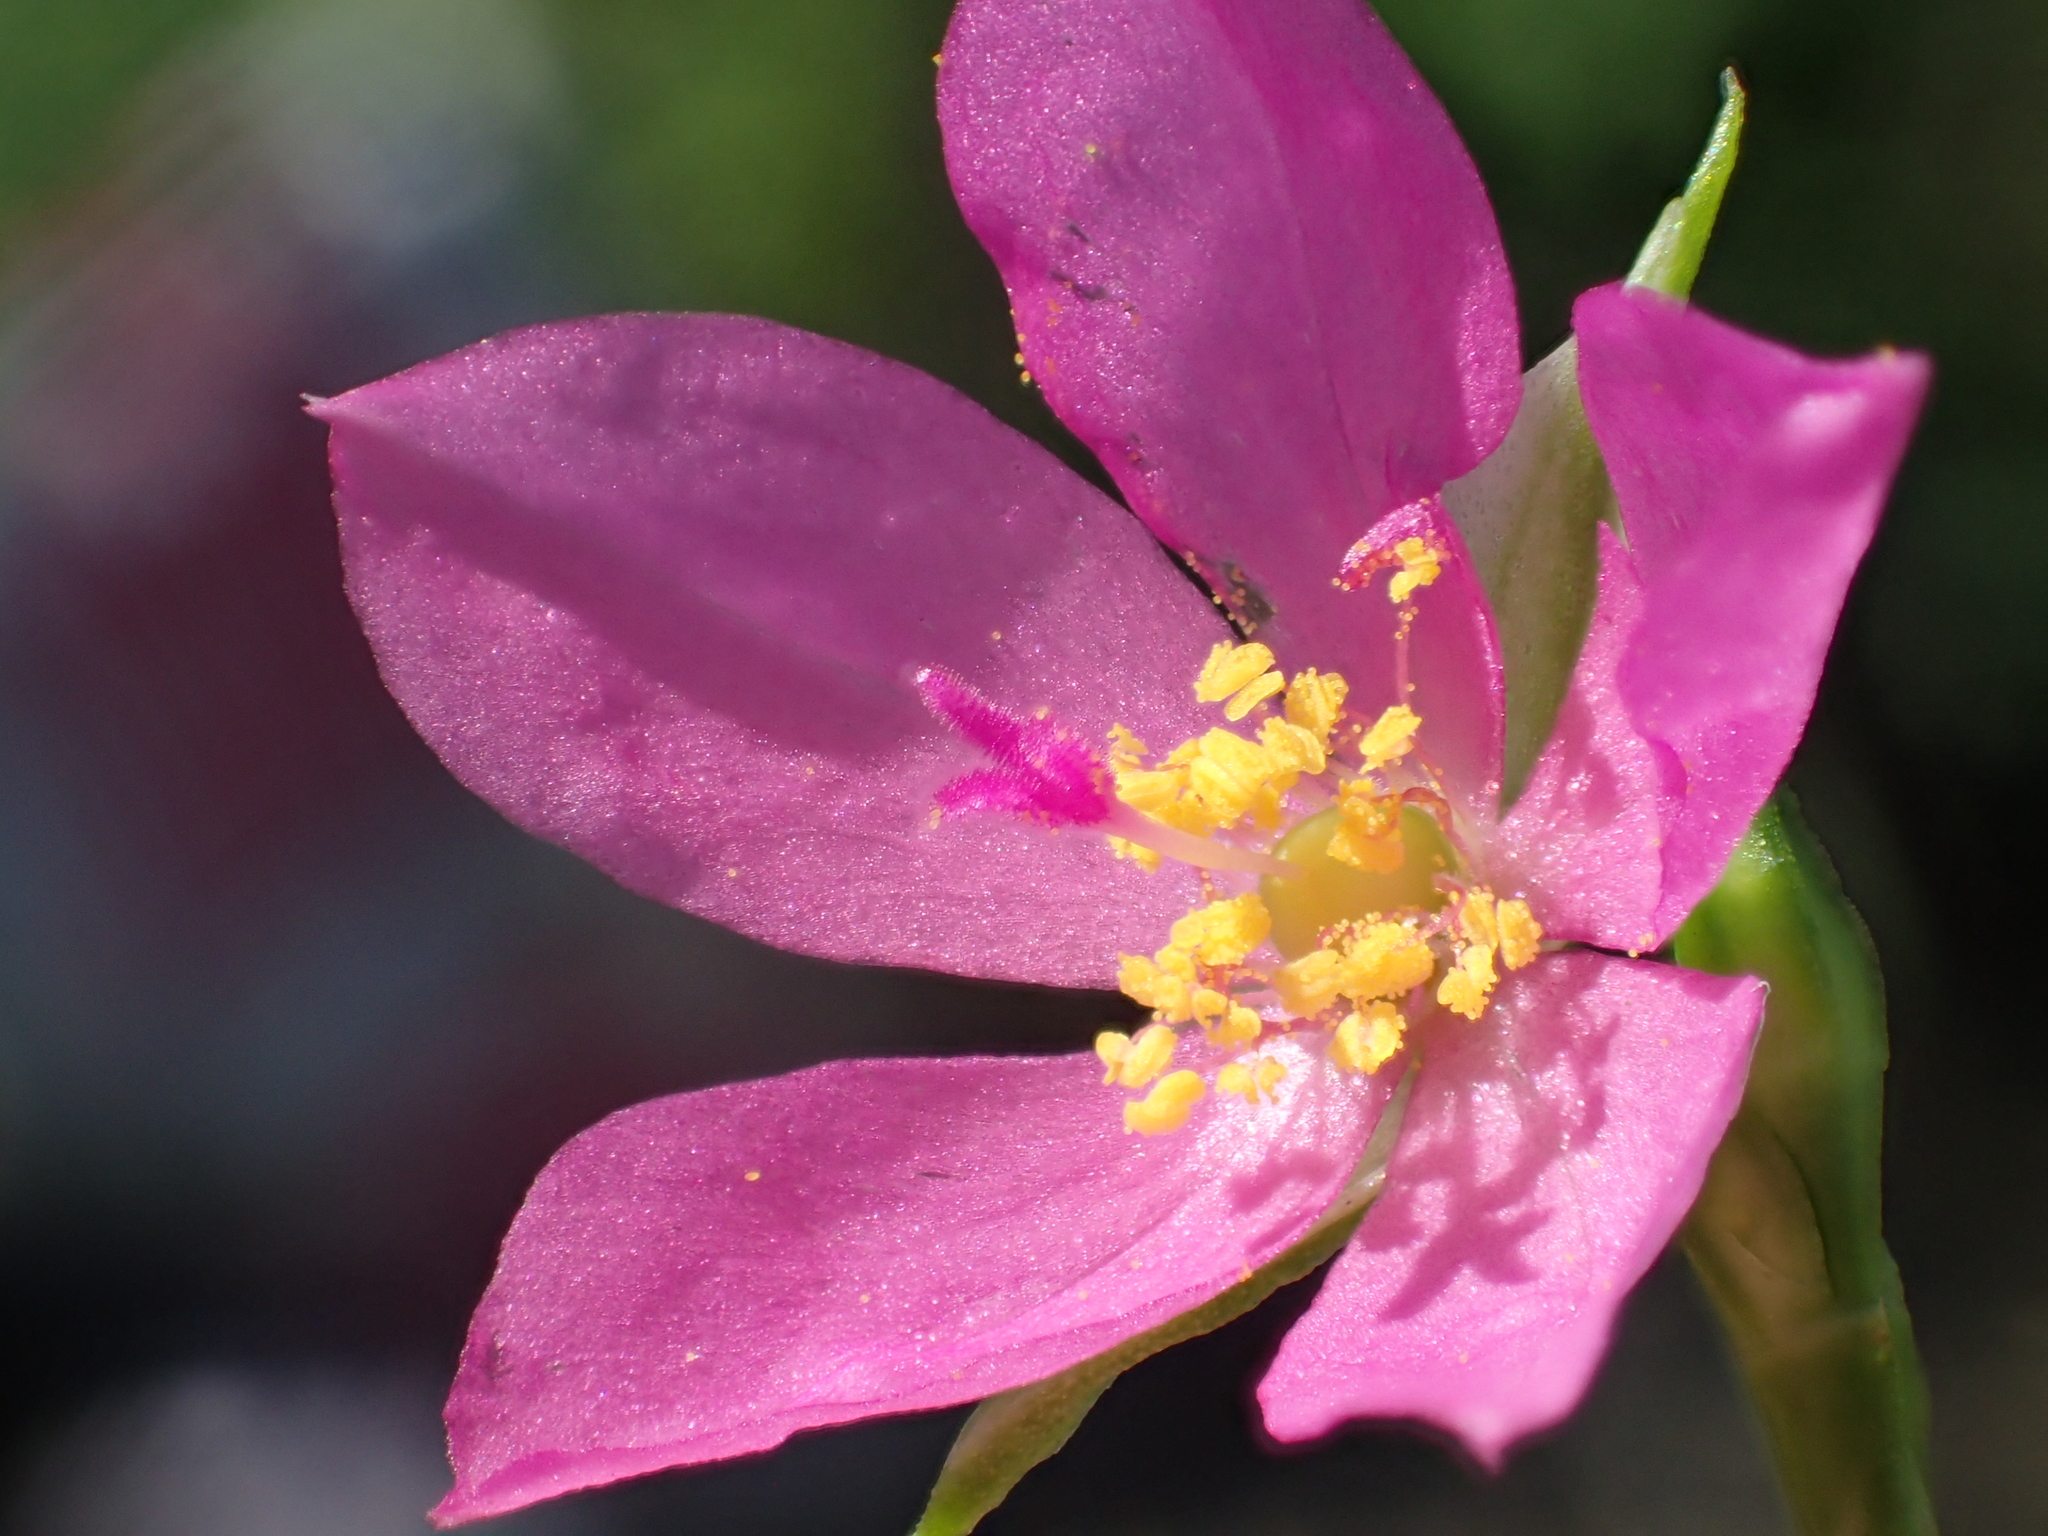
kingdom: Plantae
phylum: Tracheophyta
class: Magnoliopsida
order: Caryophyllales
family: Talinaceae
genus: Talinum
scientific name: Talinum fruticosum
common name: Verdolaga-francesa
